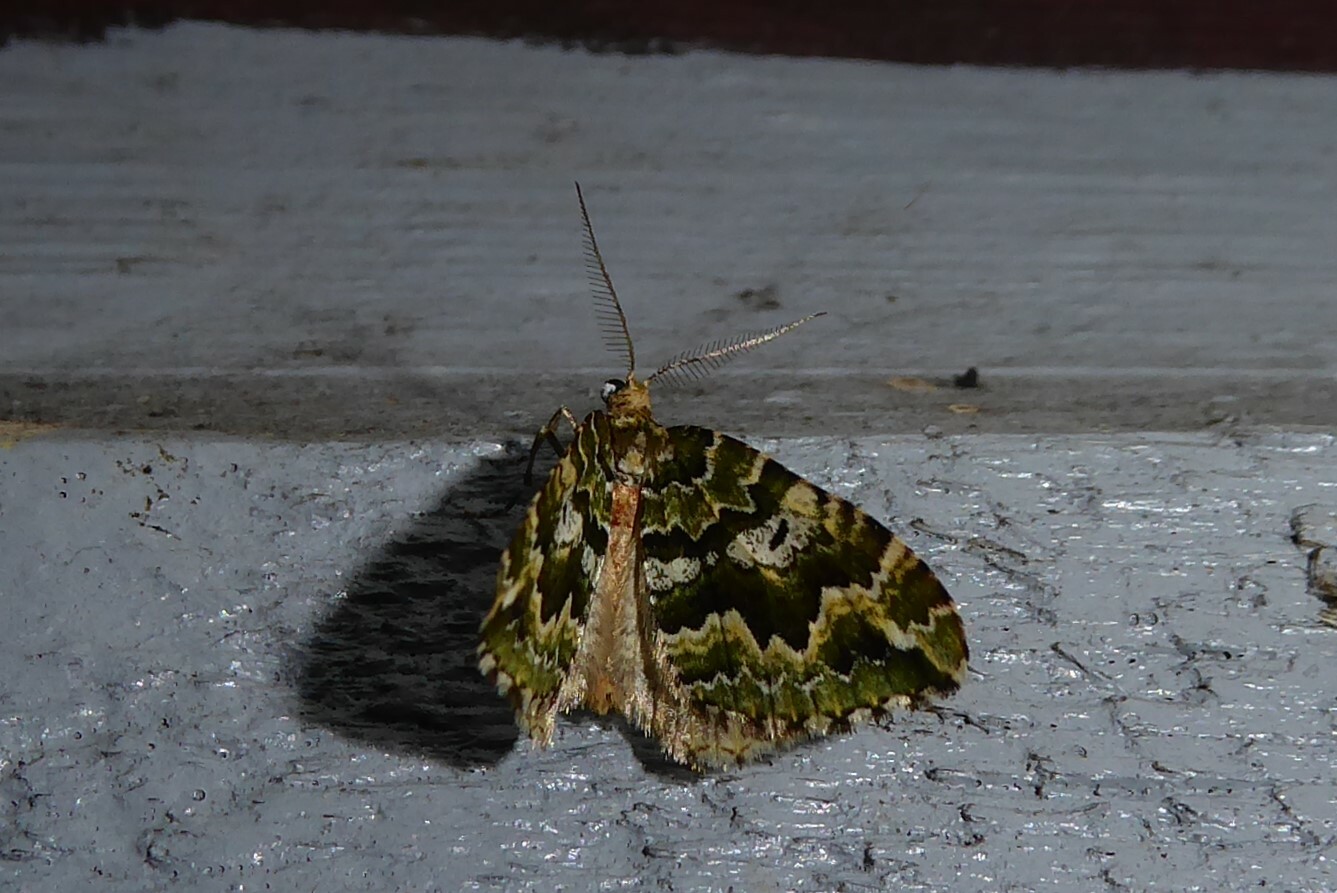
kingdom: Animalia
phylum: Arthropoda
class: Insecta
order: Lepidoptera
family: Geometridae
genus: Asaphodes
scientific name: Asaphodes beata
